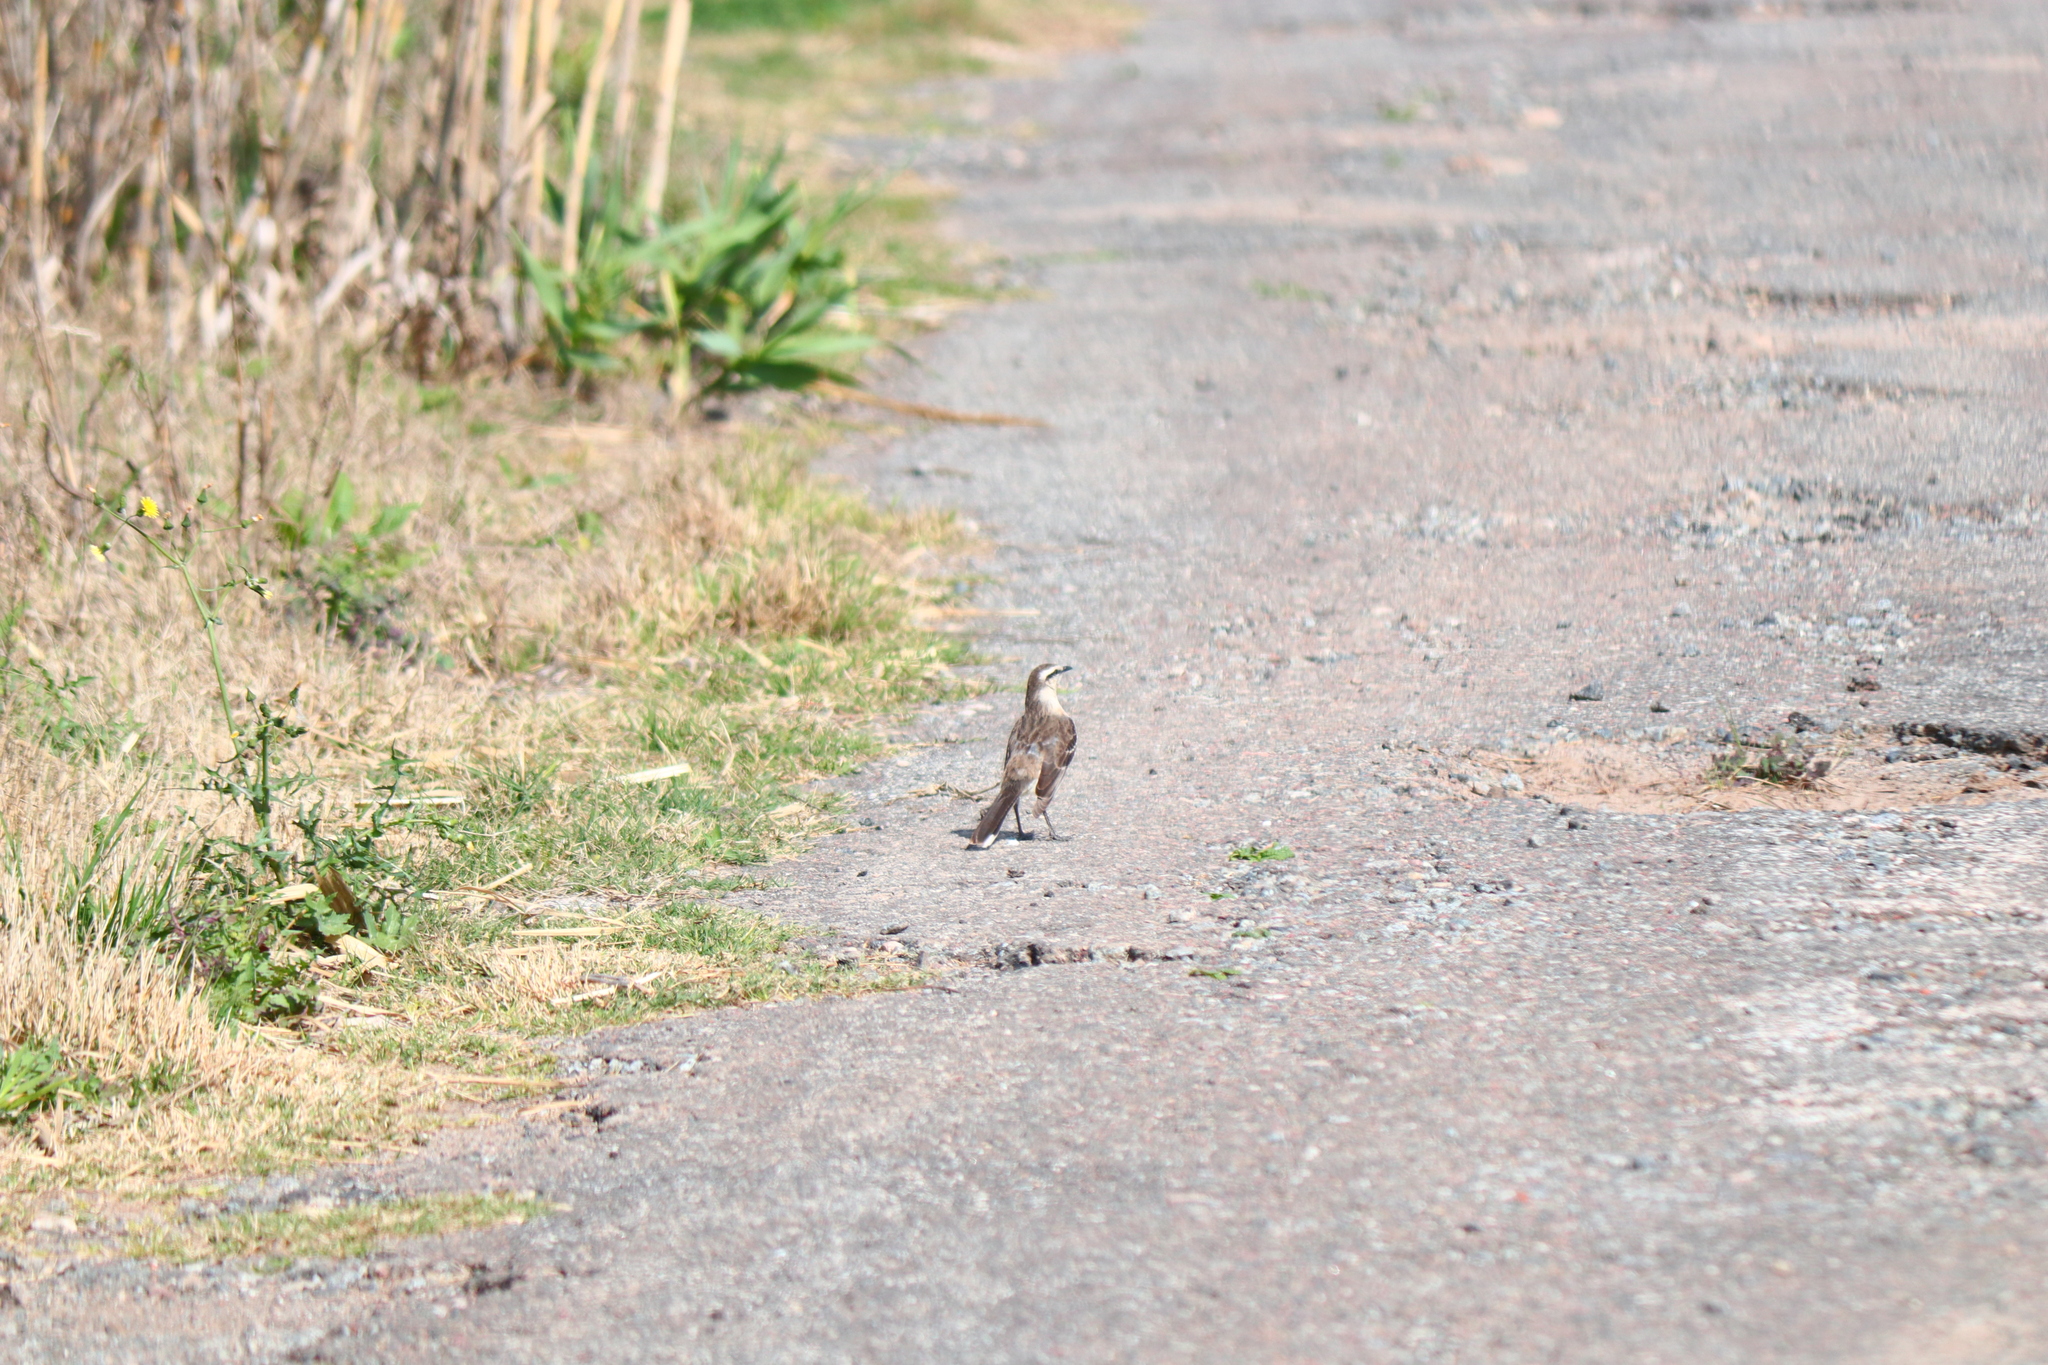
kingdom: Animalia
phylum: Chordata
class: Aves
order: Passeriformes
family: Mimidae
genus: Mimus
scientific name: Mimus saturninus
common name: Chalk-browed mockingbird
